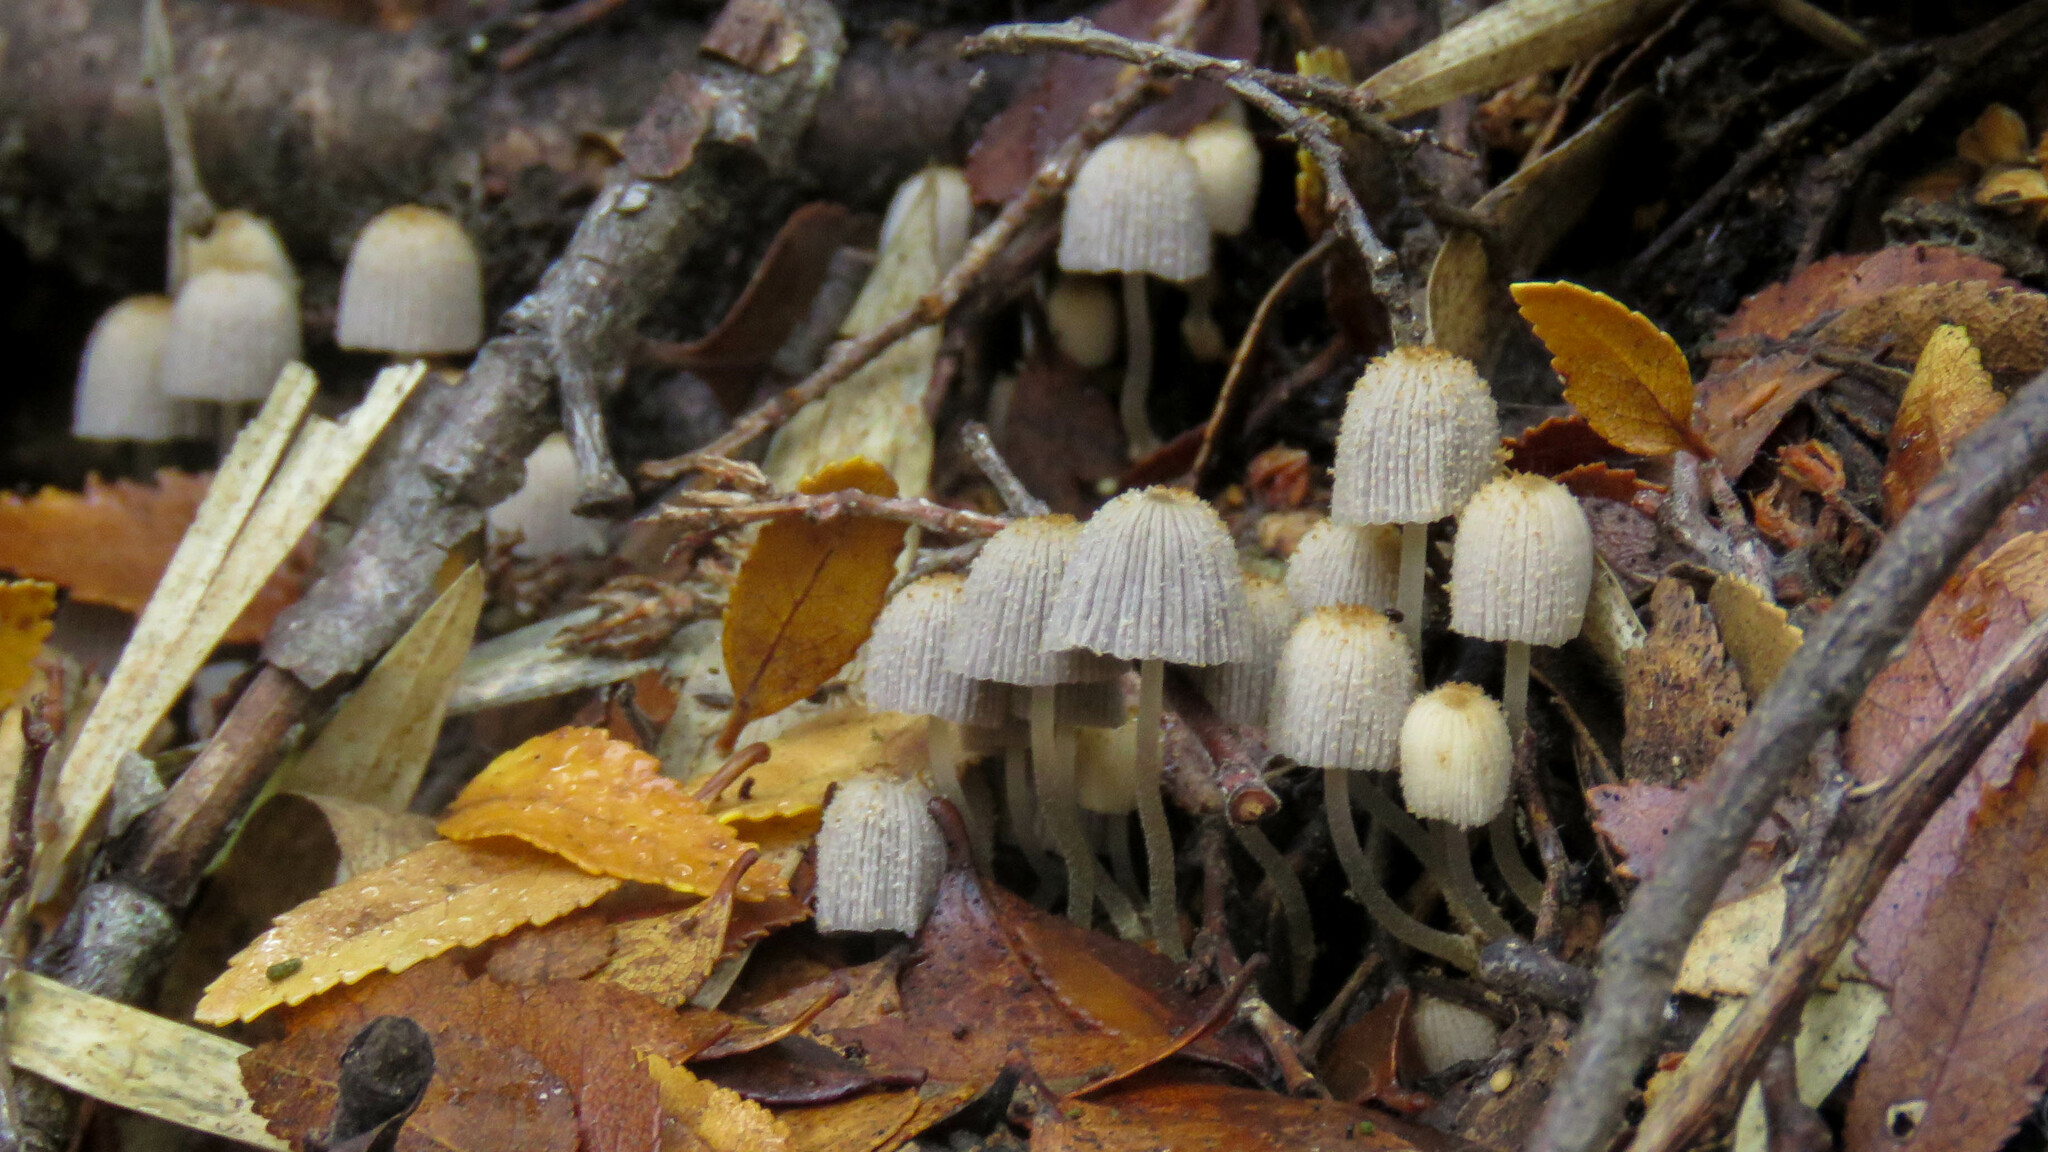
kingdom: Fungi
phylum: Basidiomycota
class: Agaricomycetes
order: Agaricales
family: Psathyrellaceae
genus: Coprinellus
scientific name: Coprinellus disseminatus
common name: Fairies' bonnets
